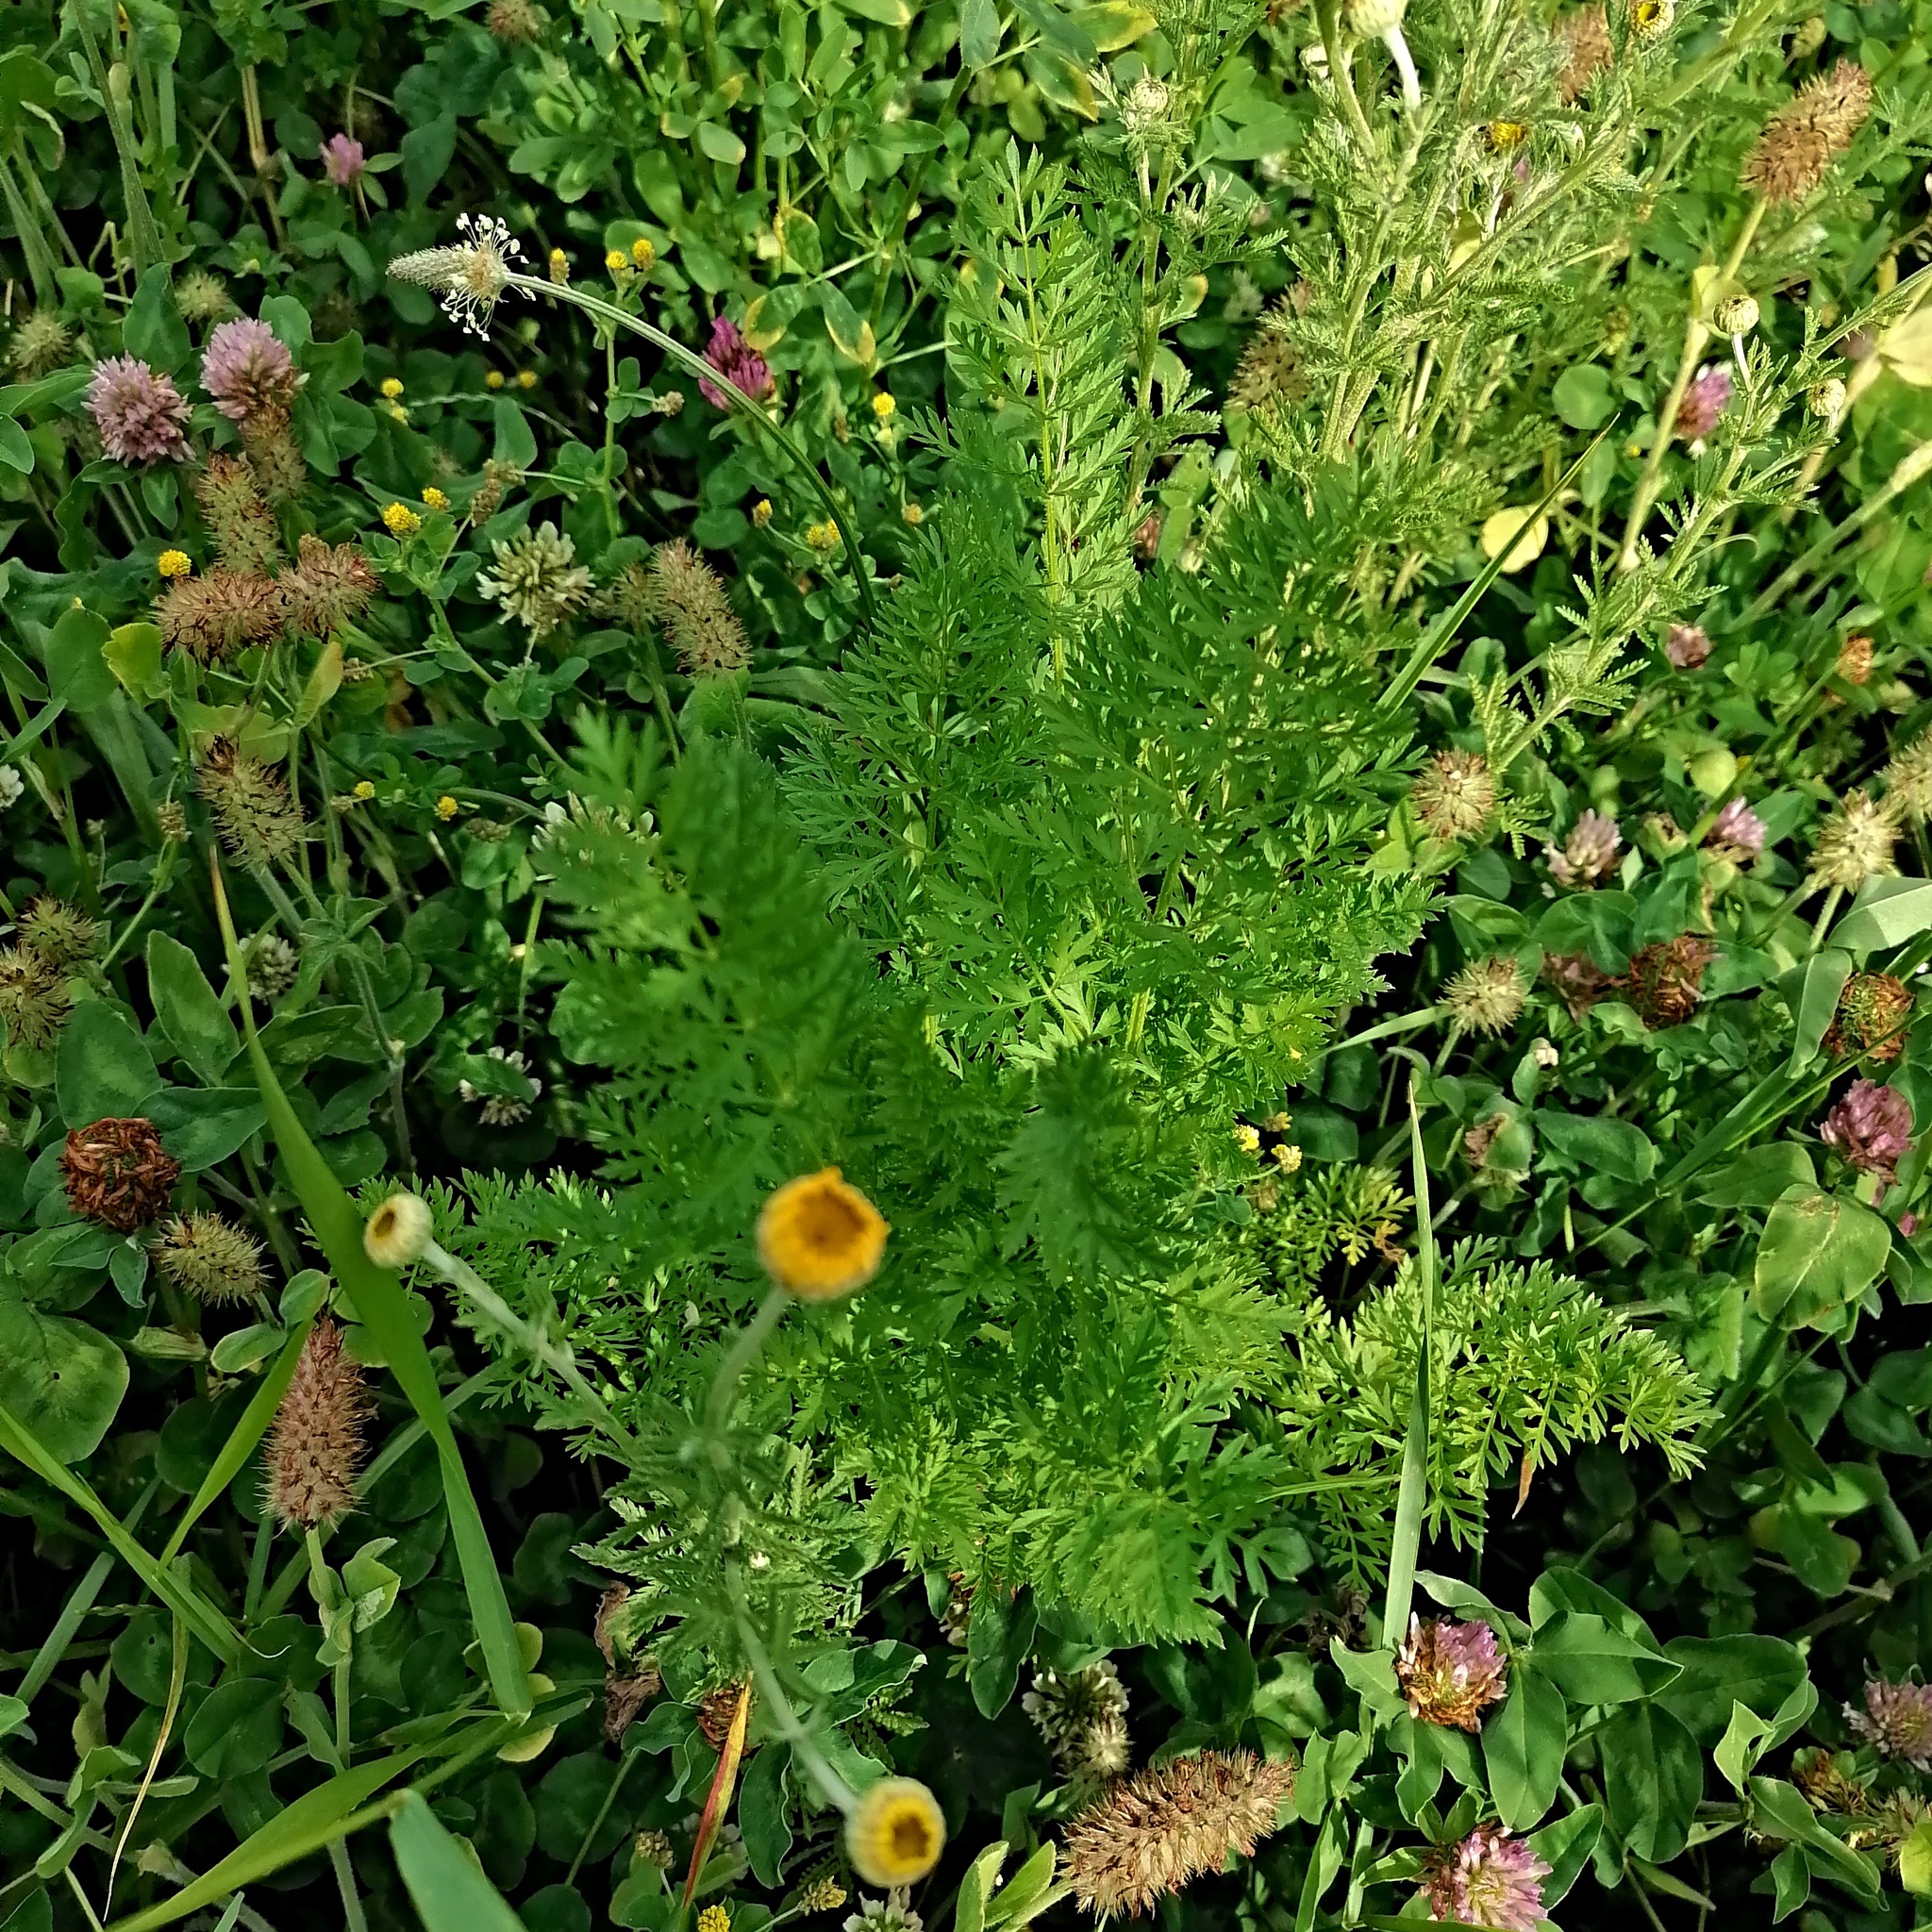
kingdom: Plantae
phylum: Tracheophyta
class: Magnoliopsida
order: Asterales
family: Asteraceae
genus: Cota
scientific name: Cota tinctoria
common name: Golden chamomile
